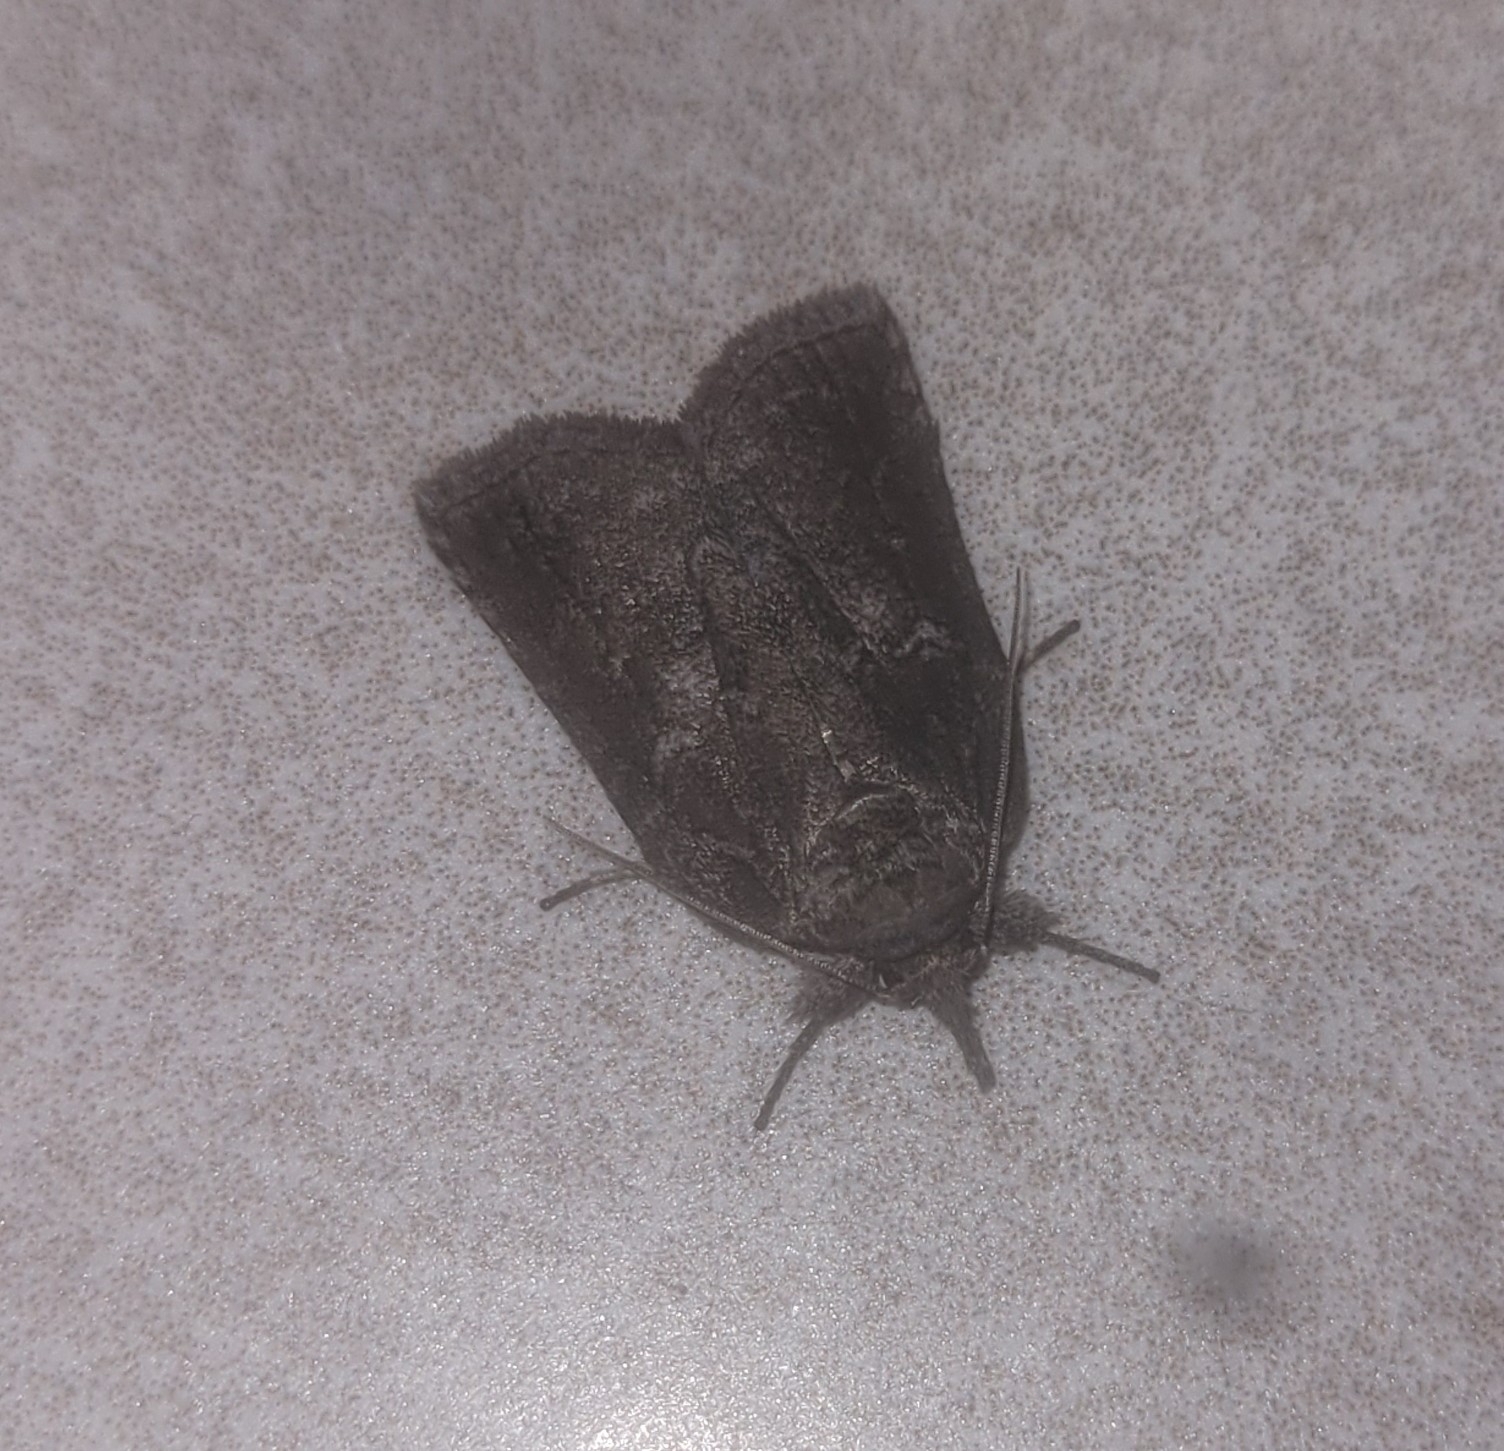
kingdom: Animalia
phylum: Arthropoda
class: Insecta
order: Lepidoptera
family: Nolidae
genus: Nycteola
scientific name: Nycteola revayana
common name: Oak nycteoline
